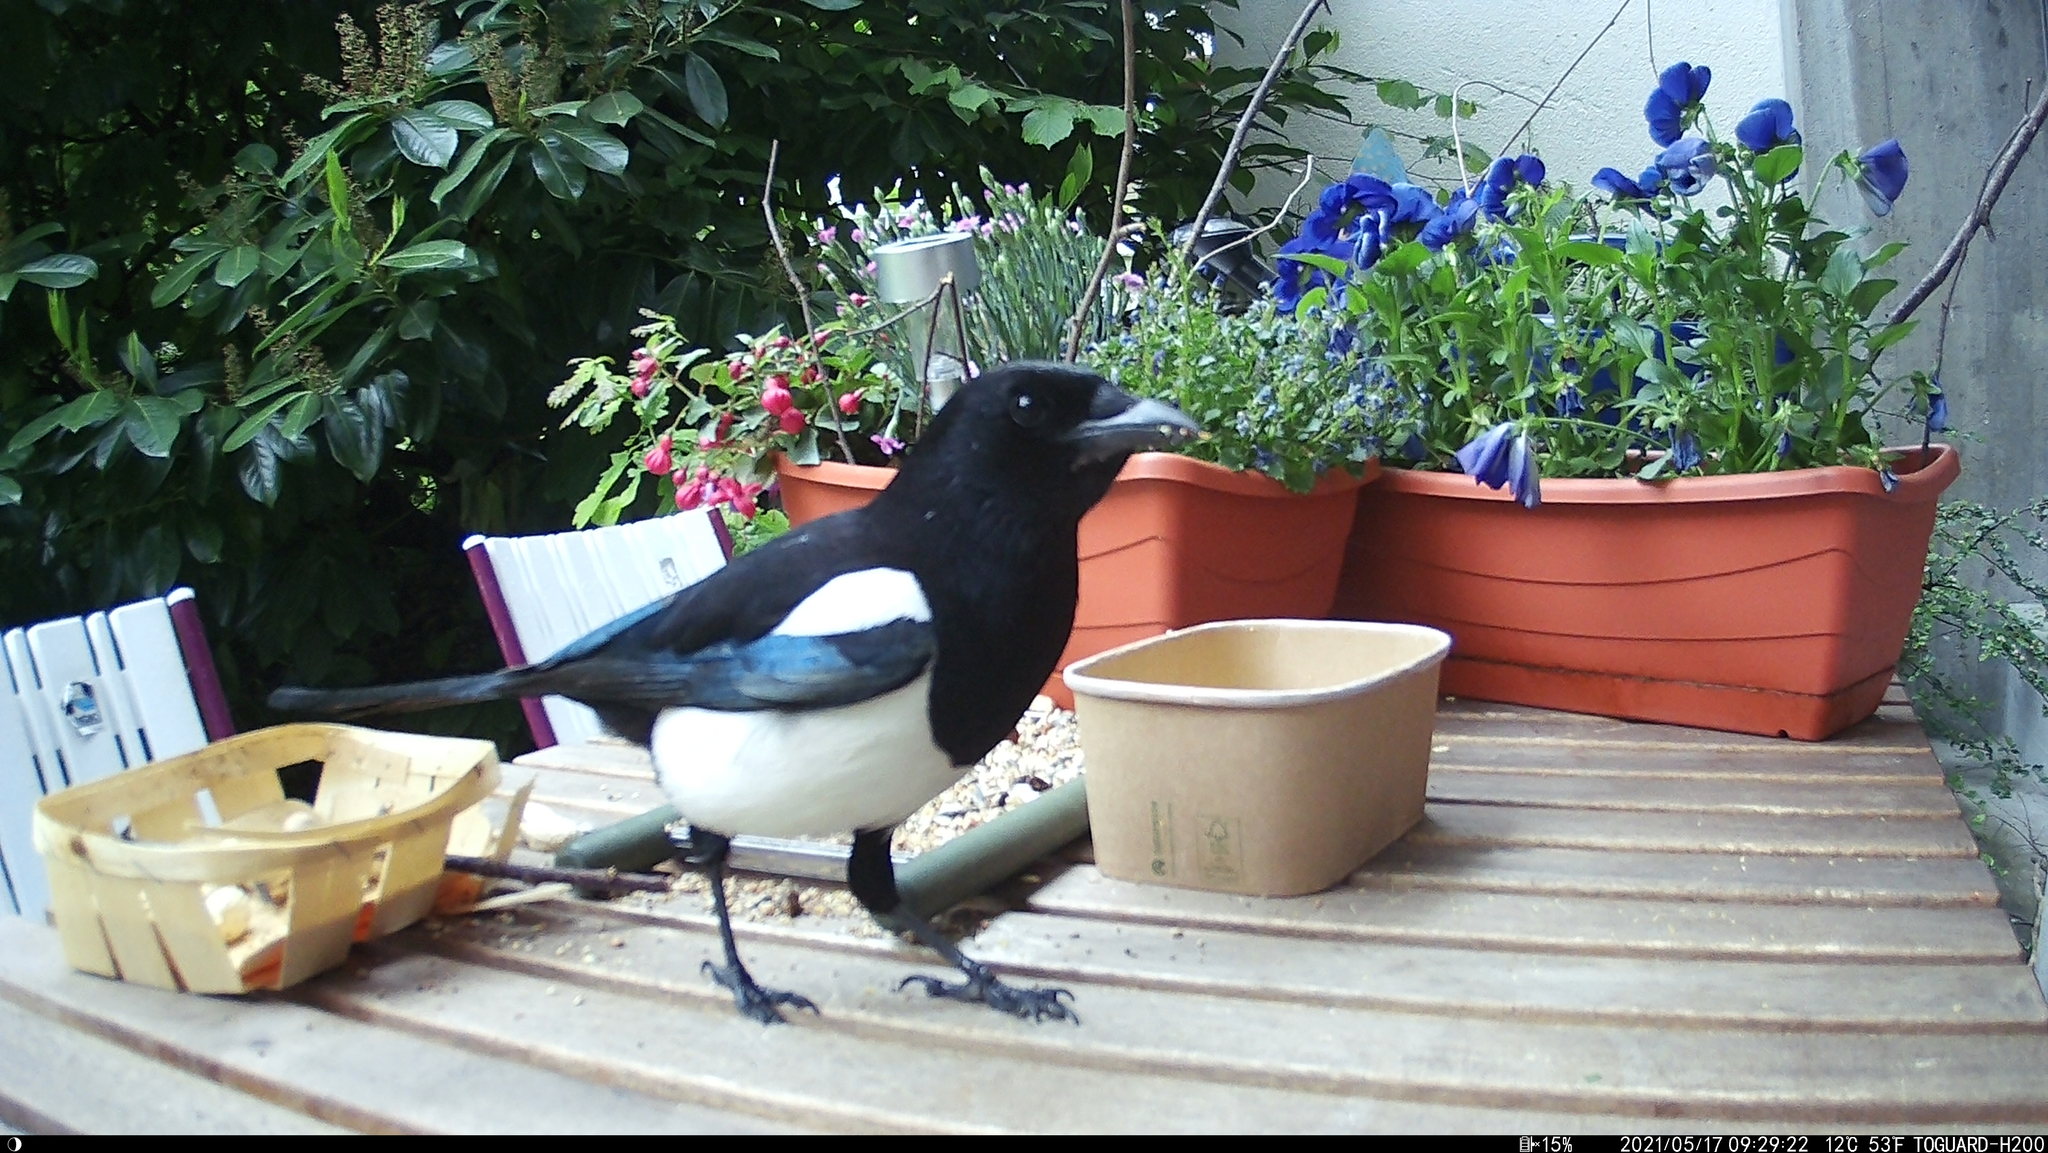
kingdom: Animalia
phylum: Chordata
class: Aves
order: Passeriformes
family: Corvidae
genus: Pica
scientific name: Pica pica
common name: Eurasian magpie
